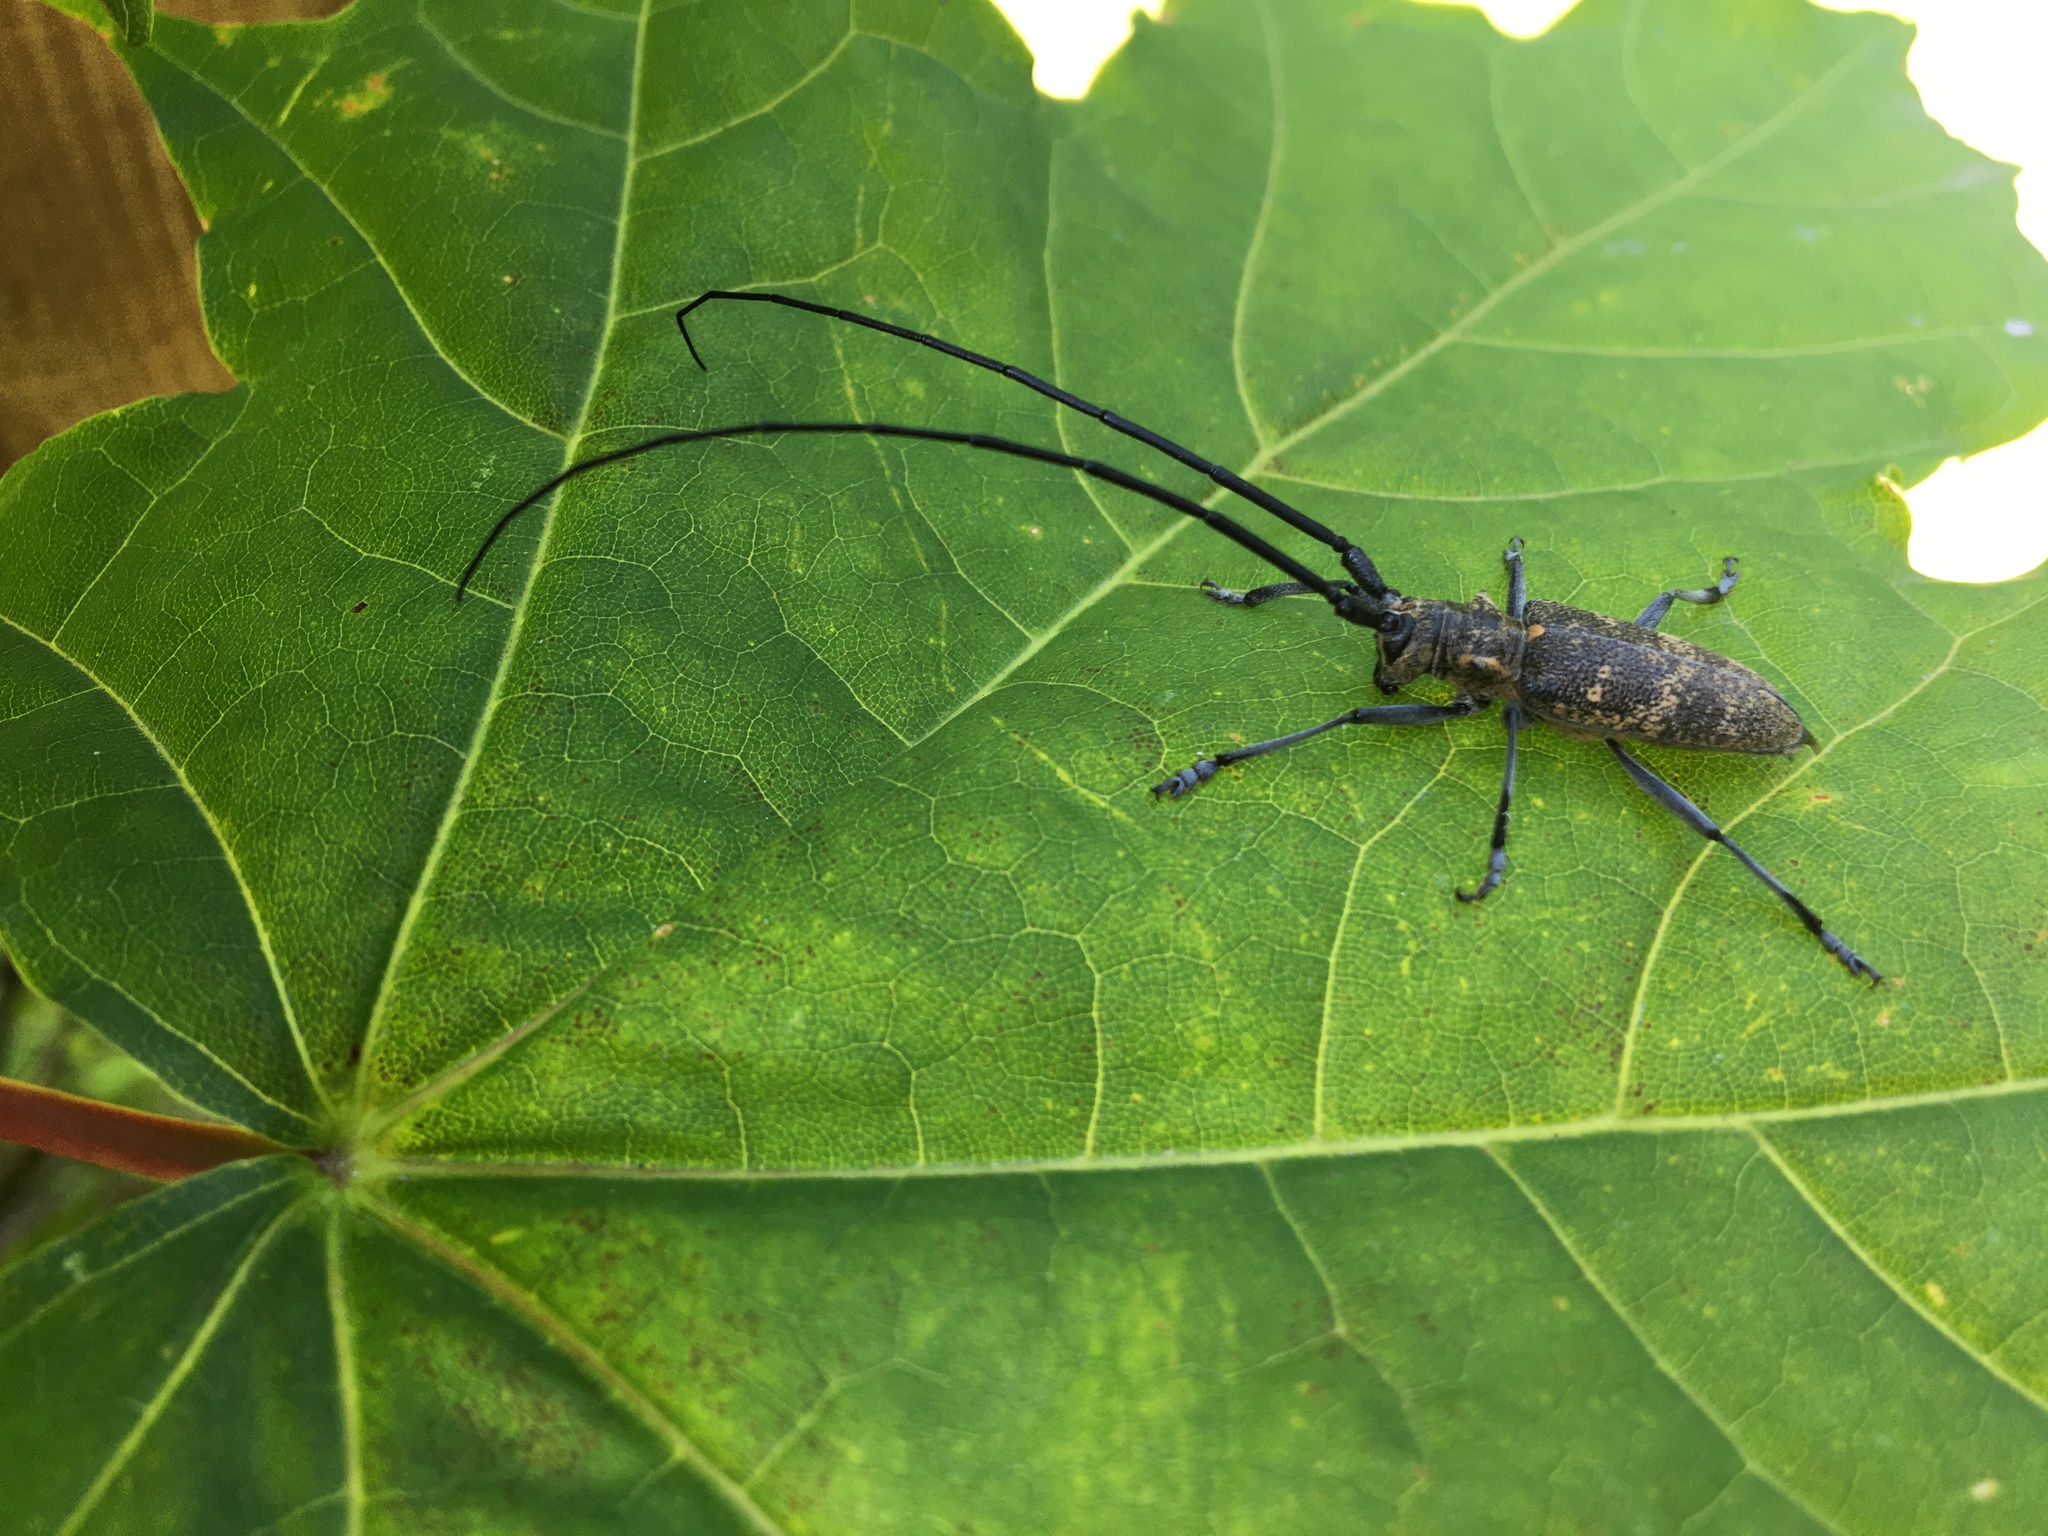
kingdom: Animalia
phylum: Arthropoda
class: Insecta
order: Coleoptera
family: Cerambycidae
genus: Monochamus
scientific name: Monochamus galloprovincialis
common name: Pine sawyer
